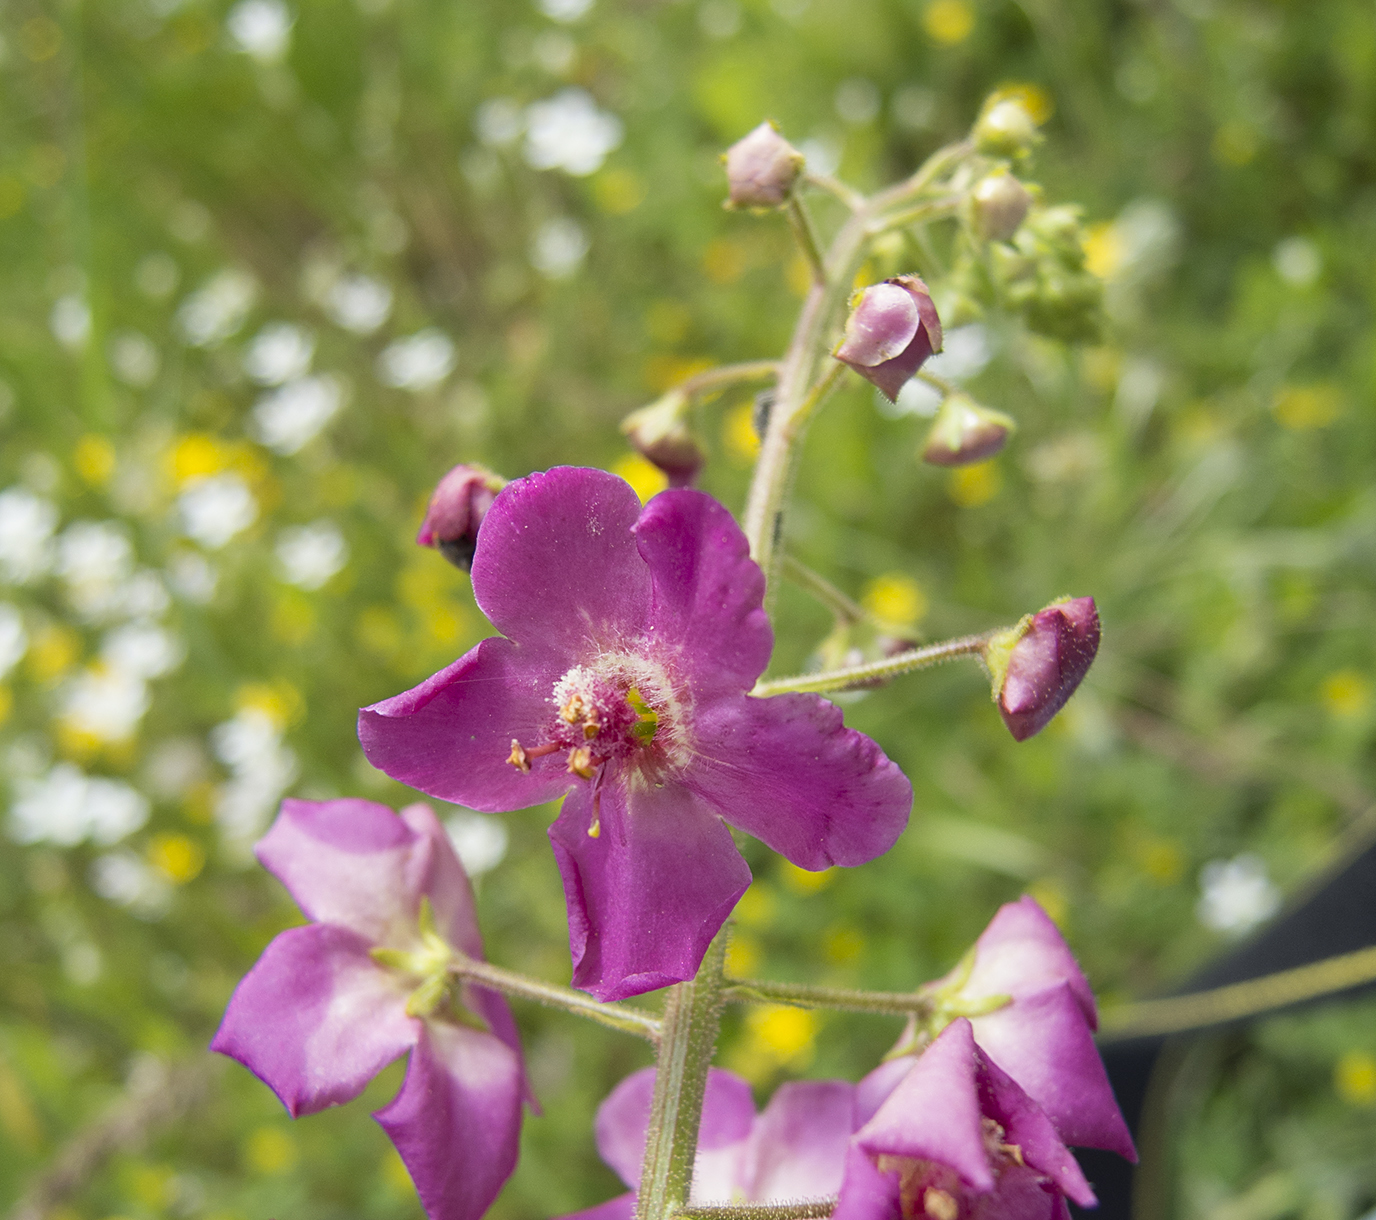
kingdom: Plantae
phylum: Tracheophyta
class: Magnoliopsida
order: Lamiales
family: Scrophulariaceae
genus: Verbascum
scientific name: Verbascum phoeniceum
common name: Purple mullein
